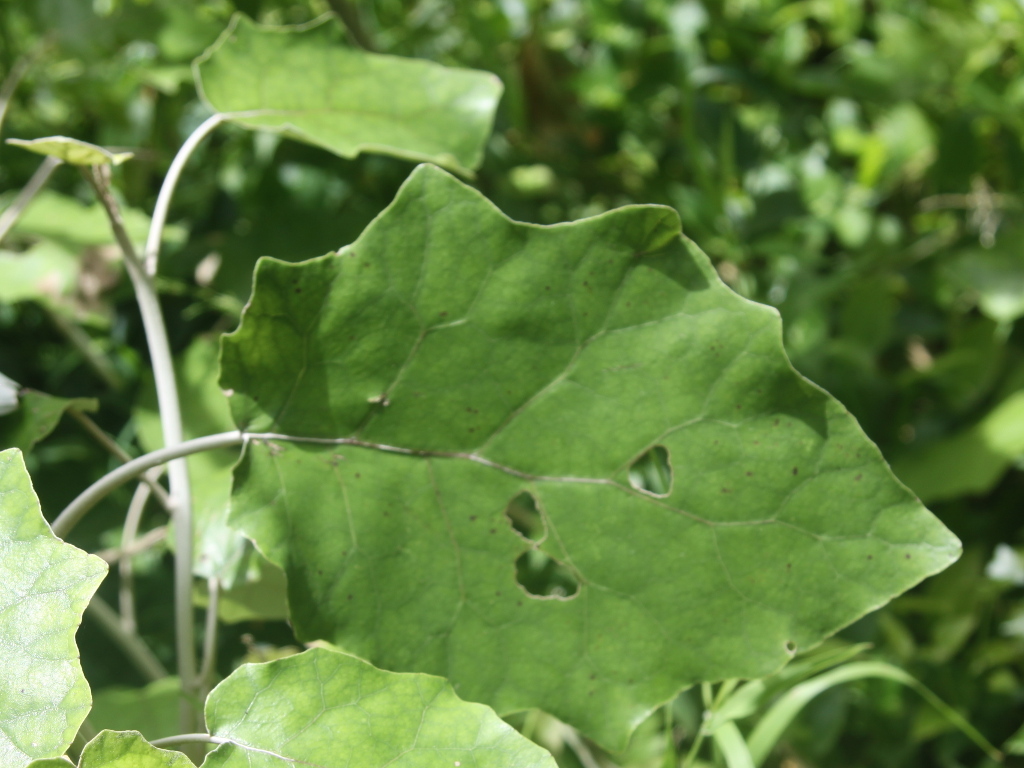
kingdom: Plantae
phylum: Tracheophyta
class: Magnoliopsida
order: Asterales
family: Asteraceae
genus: Brachyglottis
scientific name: Brachyglottis repanda
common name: Hedge ragwort
